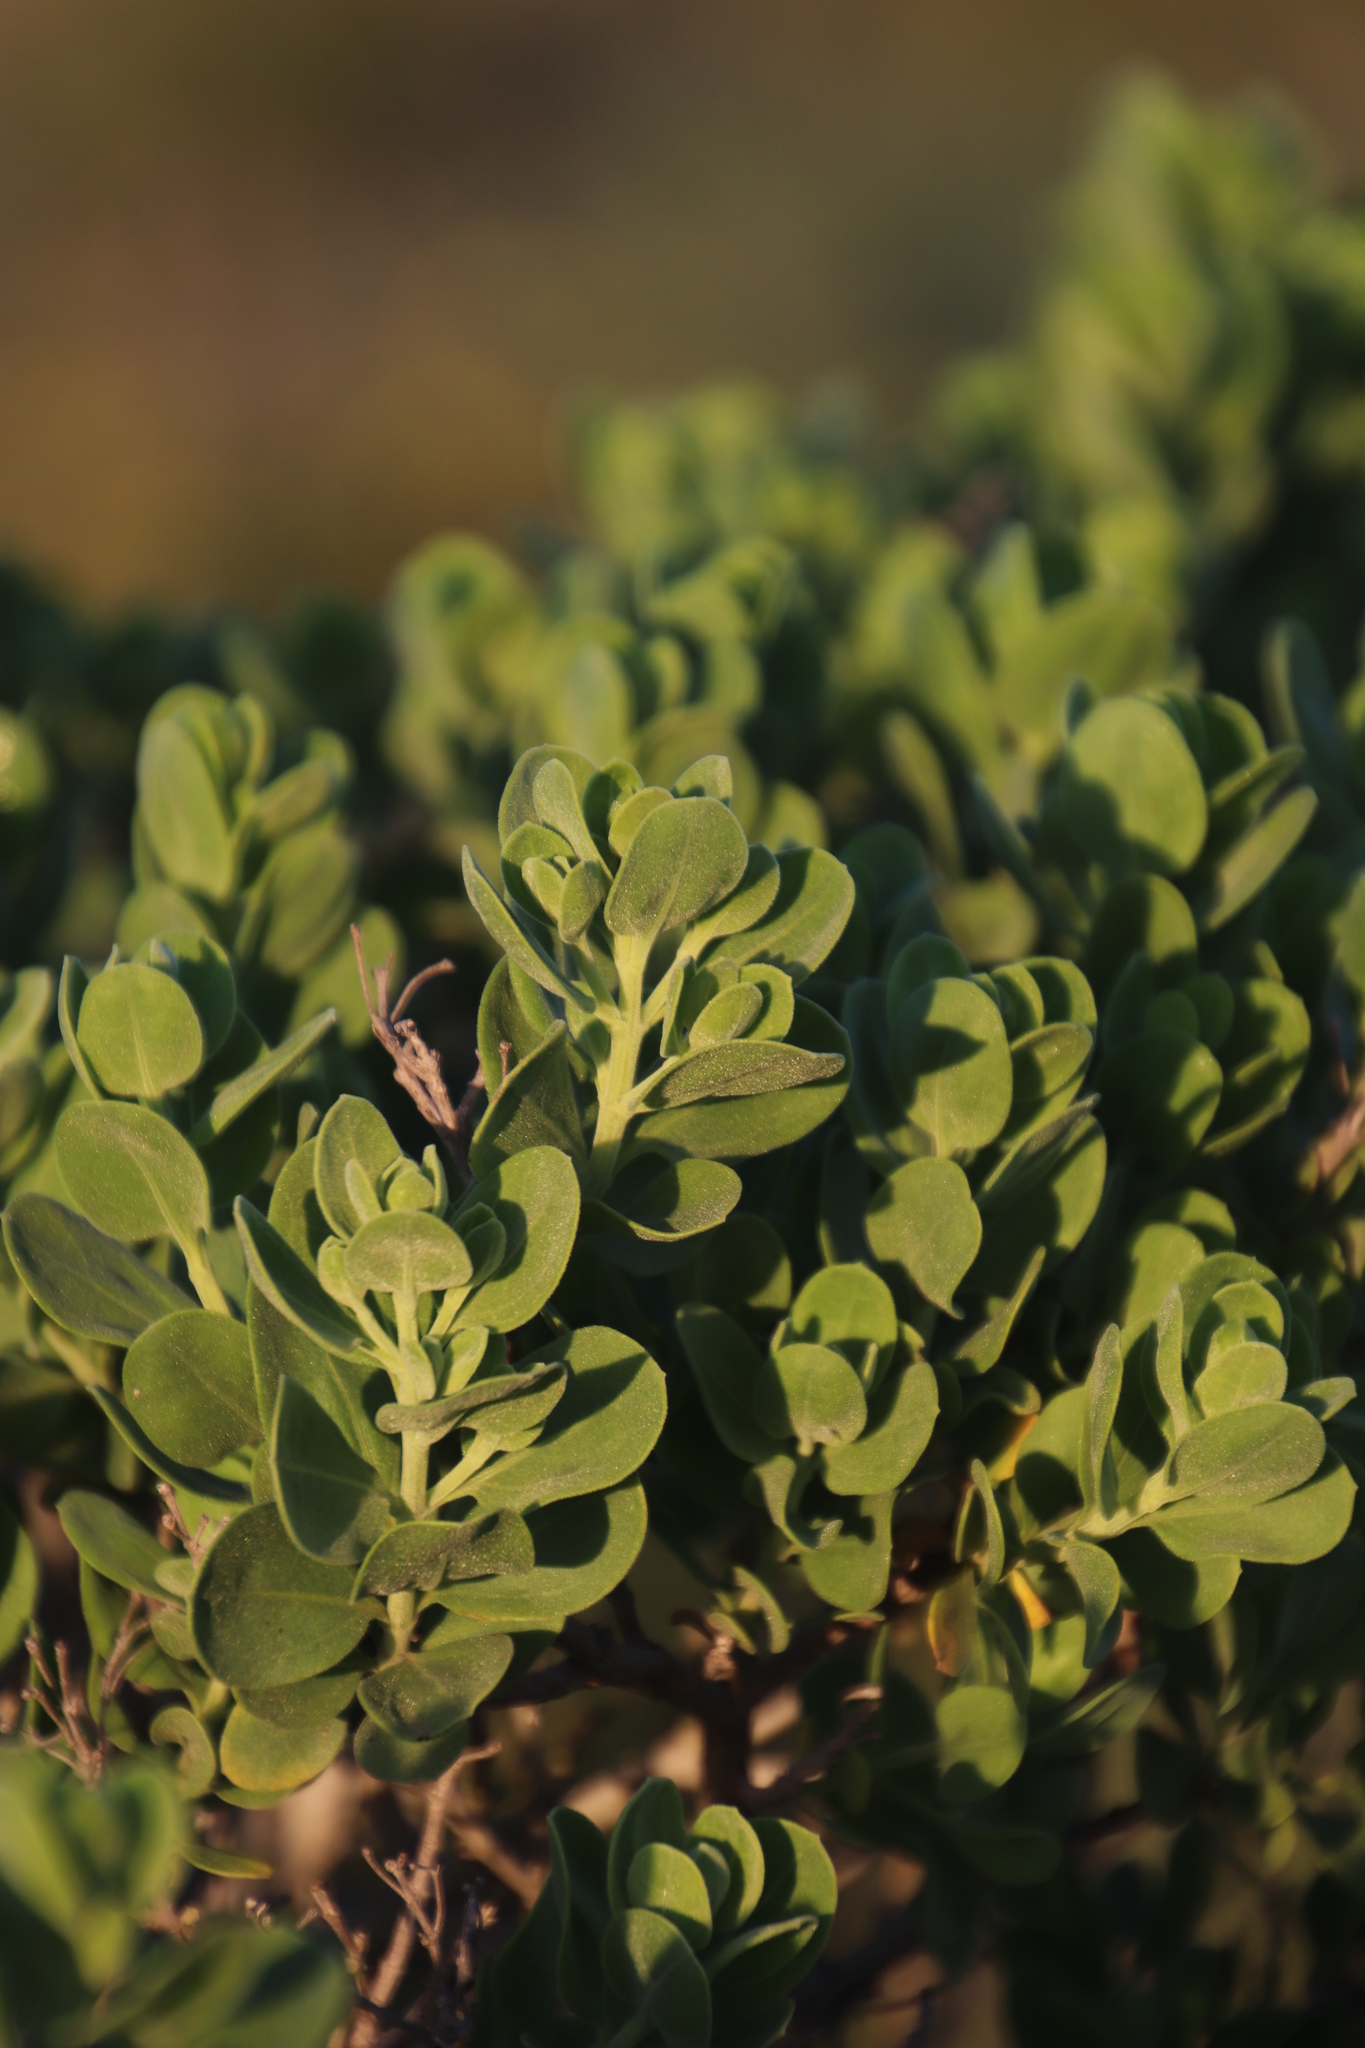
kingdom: Plantae
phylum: Tracheophyta
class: Magnoliopsida
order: Asterales
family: Asteraceae
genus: Pteronia
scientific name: Pteronia divaricata
